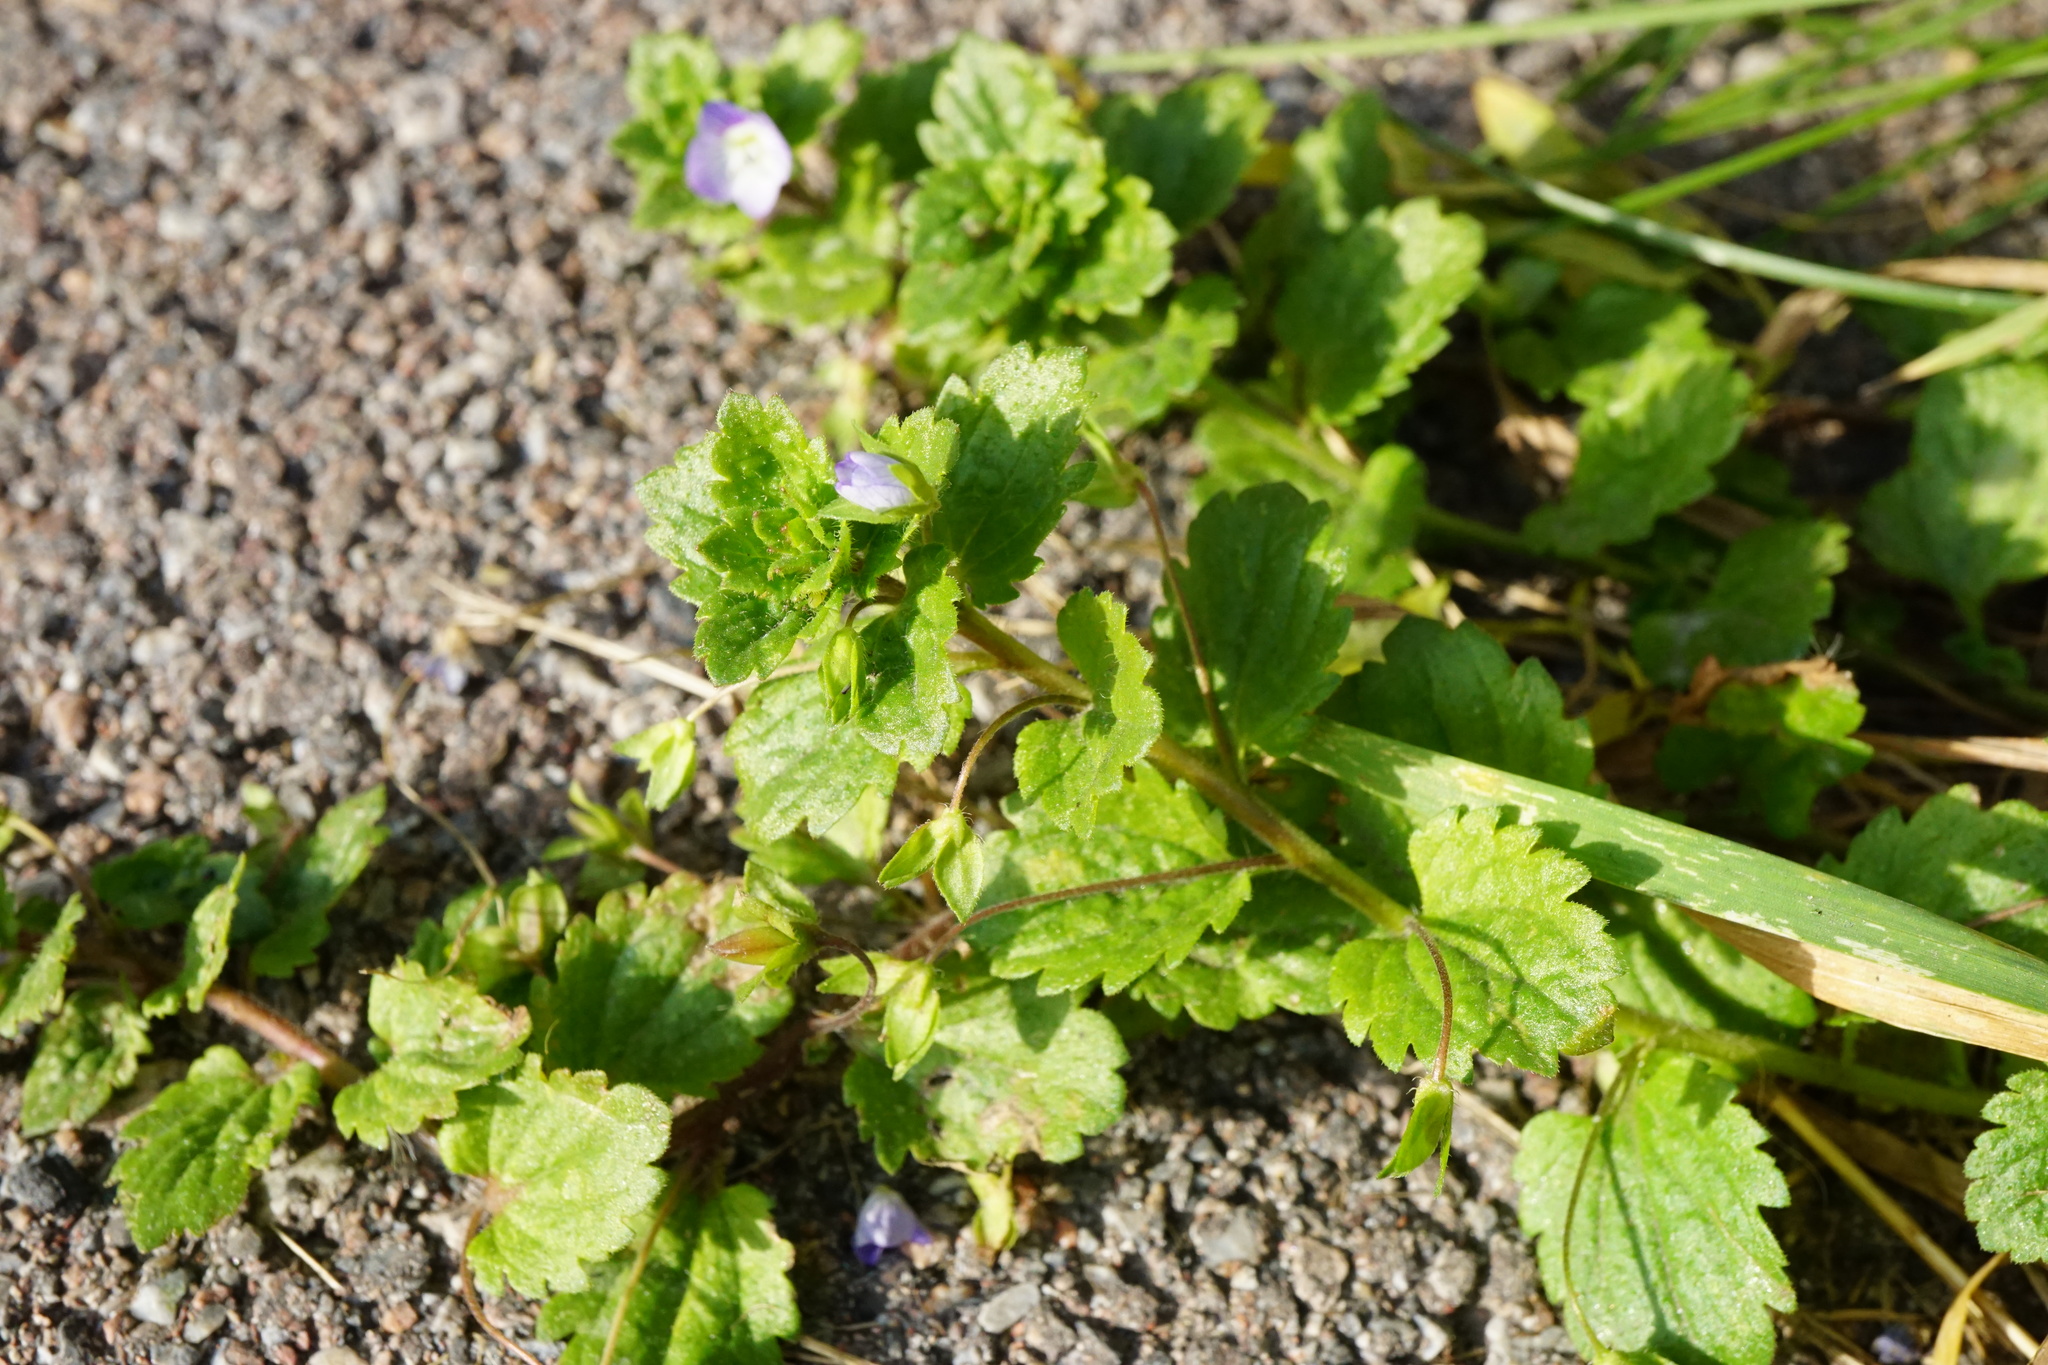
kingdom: Plantae
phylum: Tracheophyta
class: Magnoliopsida
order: Lamiales
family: Plantaginaceae
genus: Veronica
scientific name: Veronica persica
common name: Common field-speedwell
